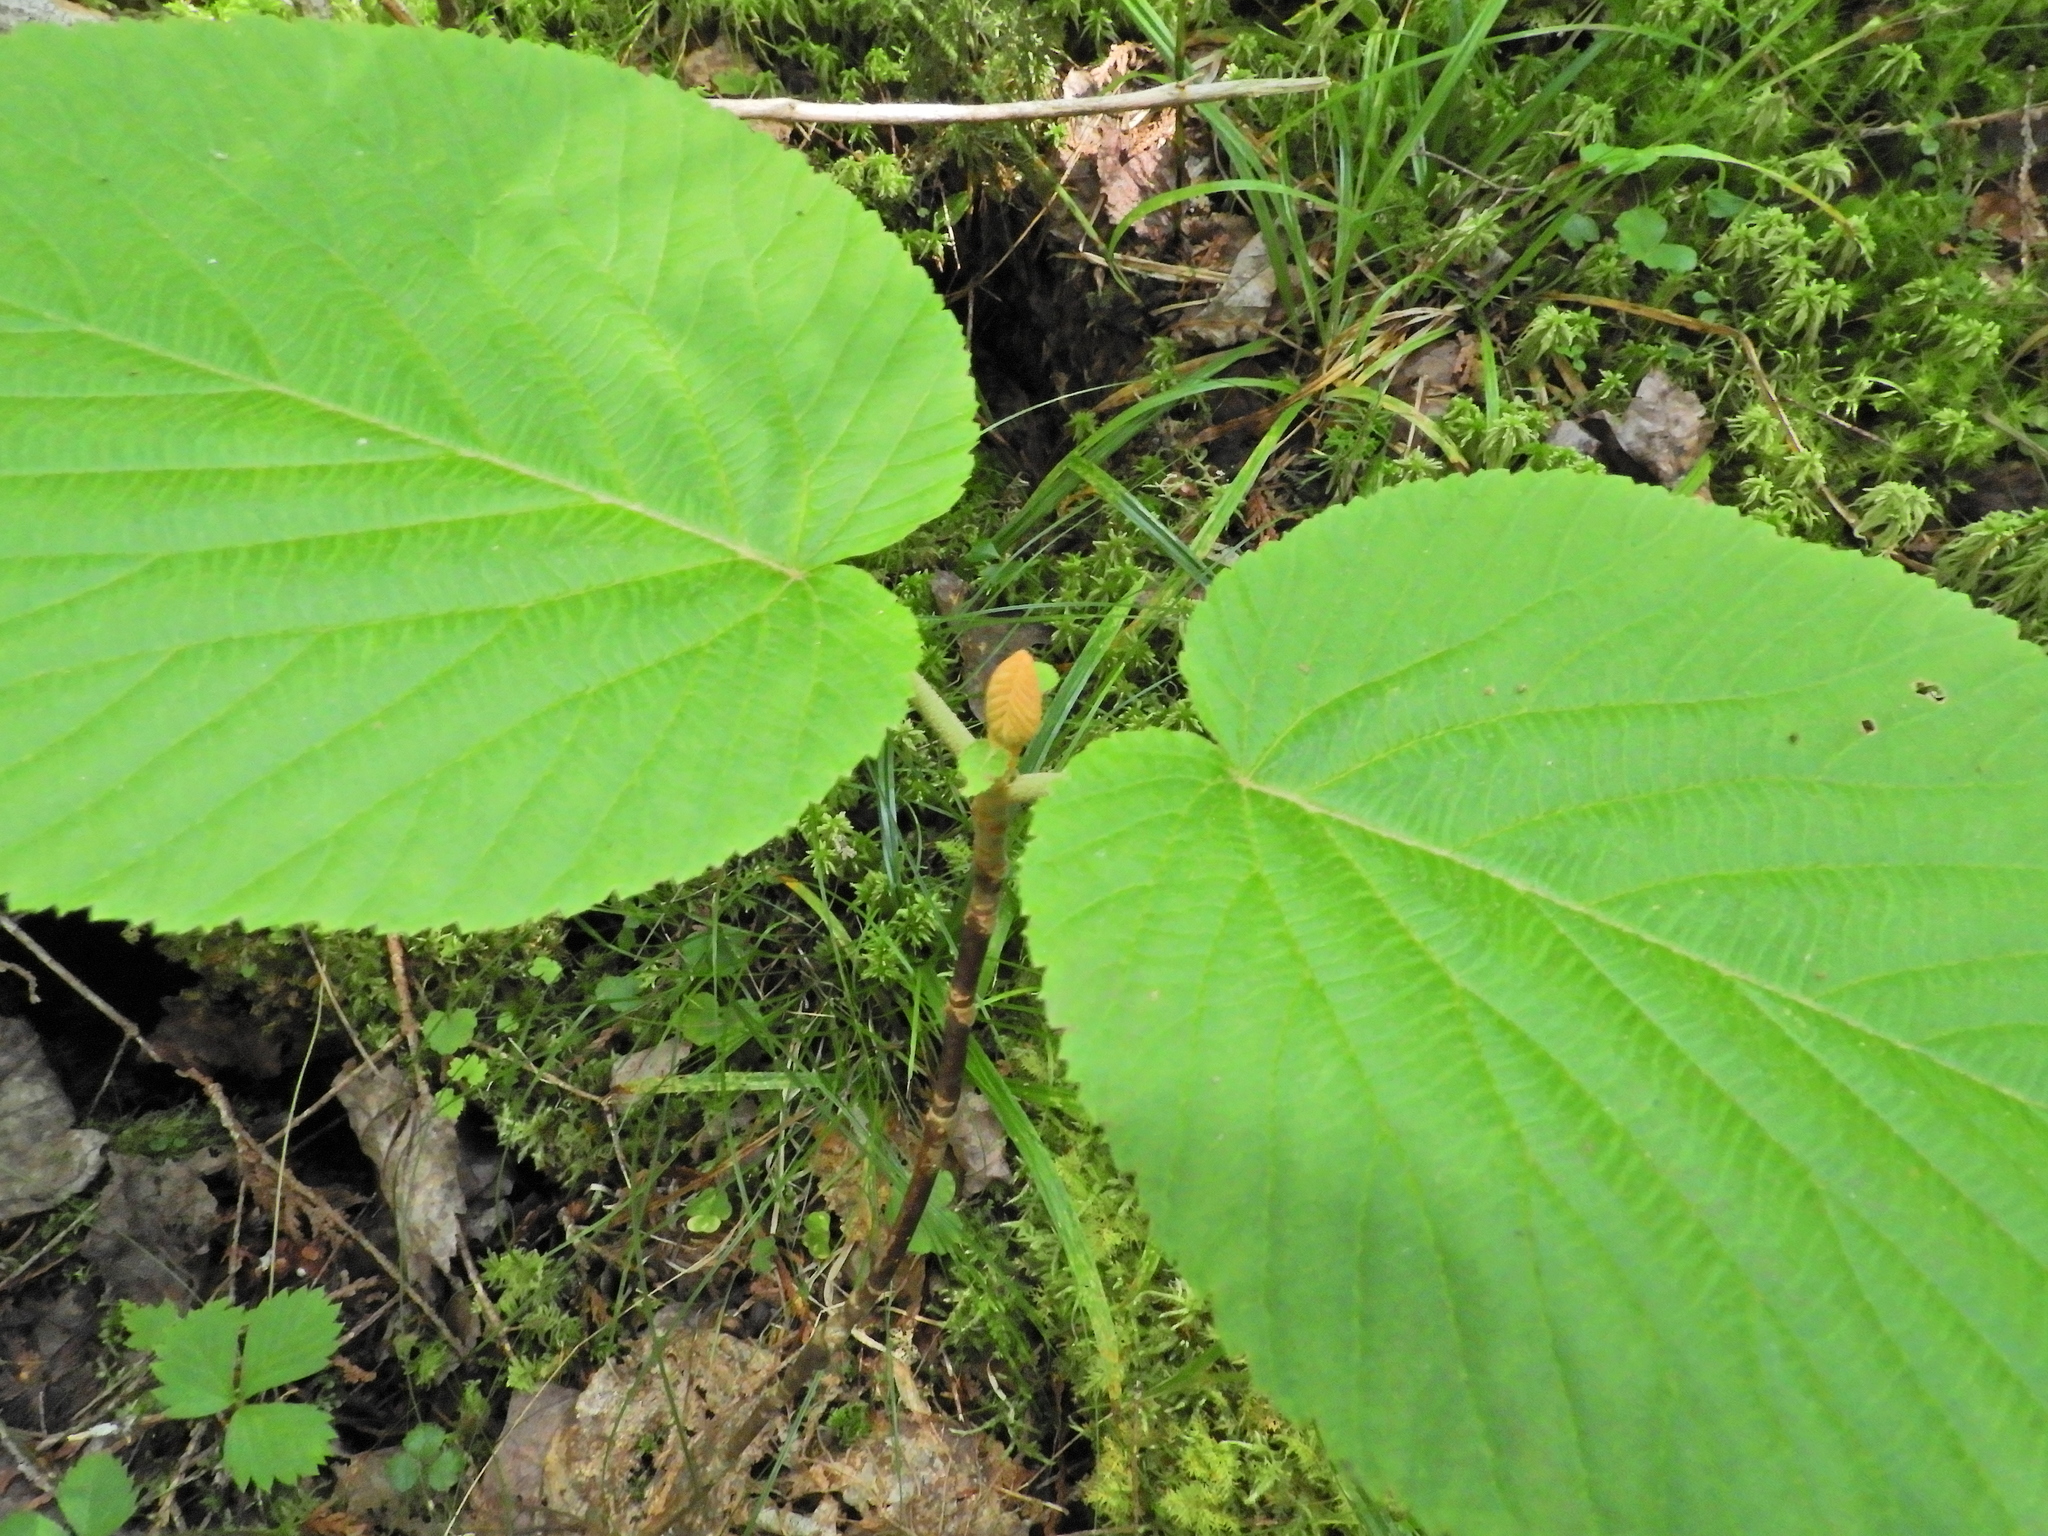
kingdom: Plantae
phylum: Tracheophyta
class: Magnoliopsida
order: Dipsacales
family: Viburnaceae
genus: Viburnum
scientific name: Viburnum lantanoides
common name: Hobblebush
